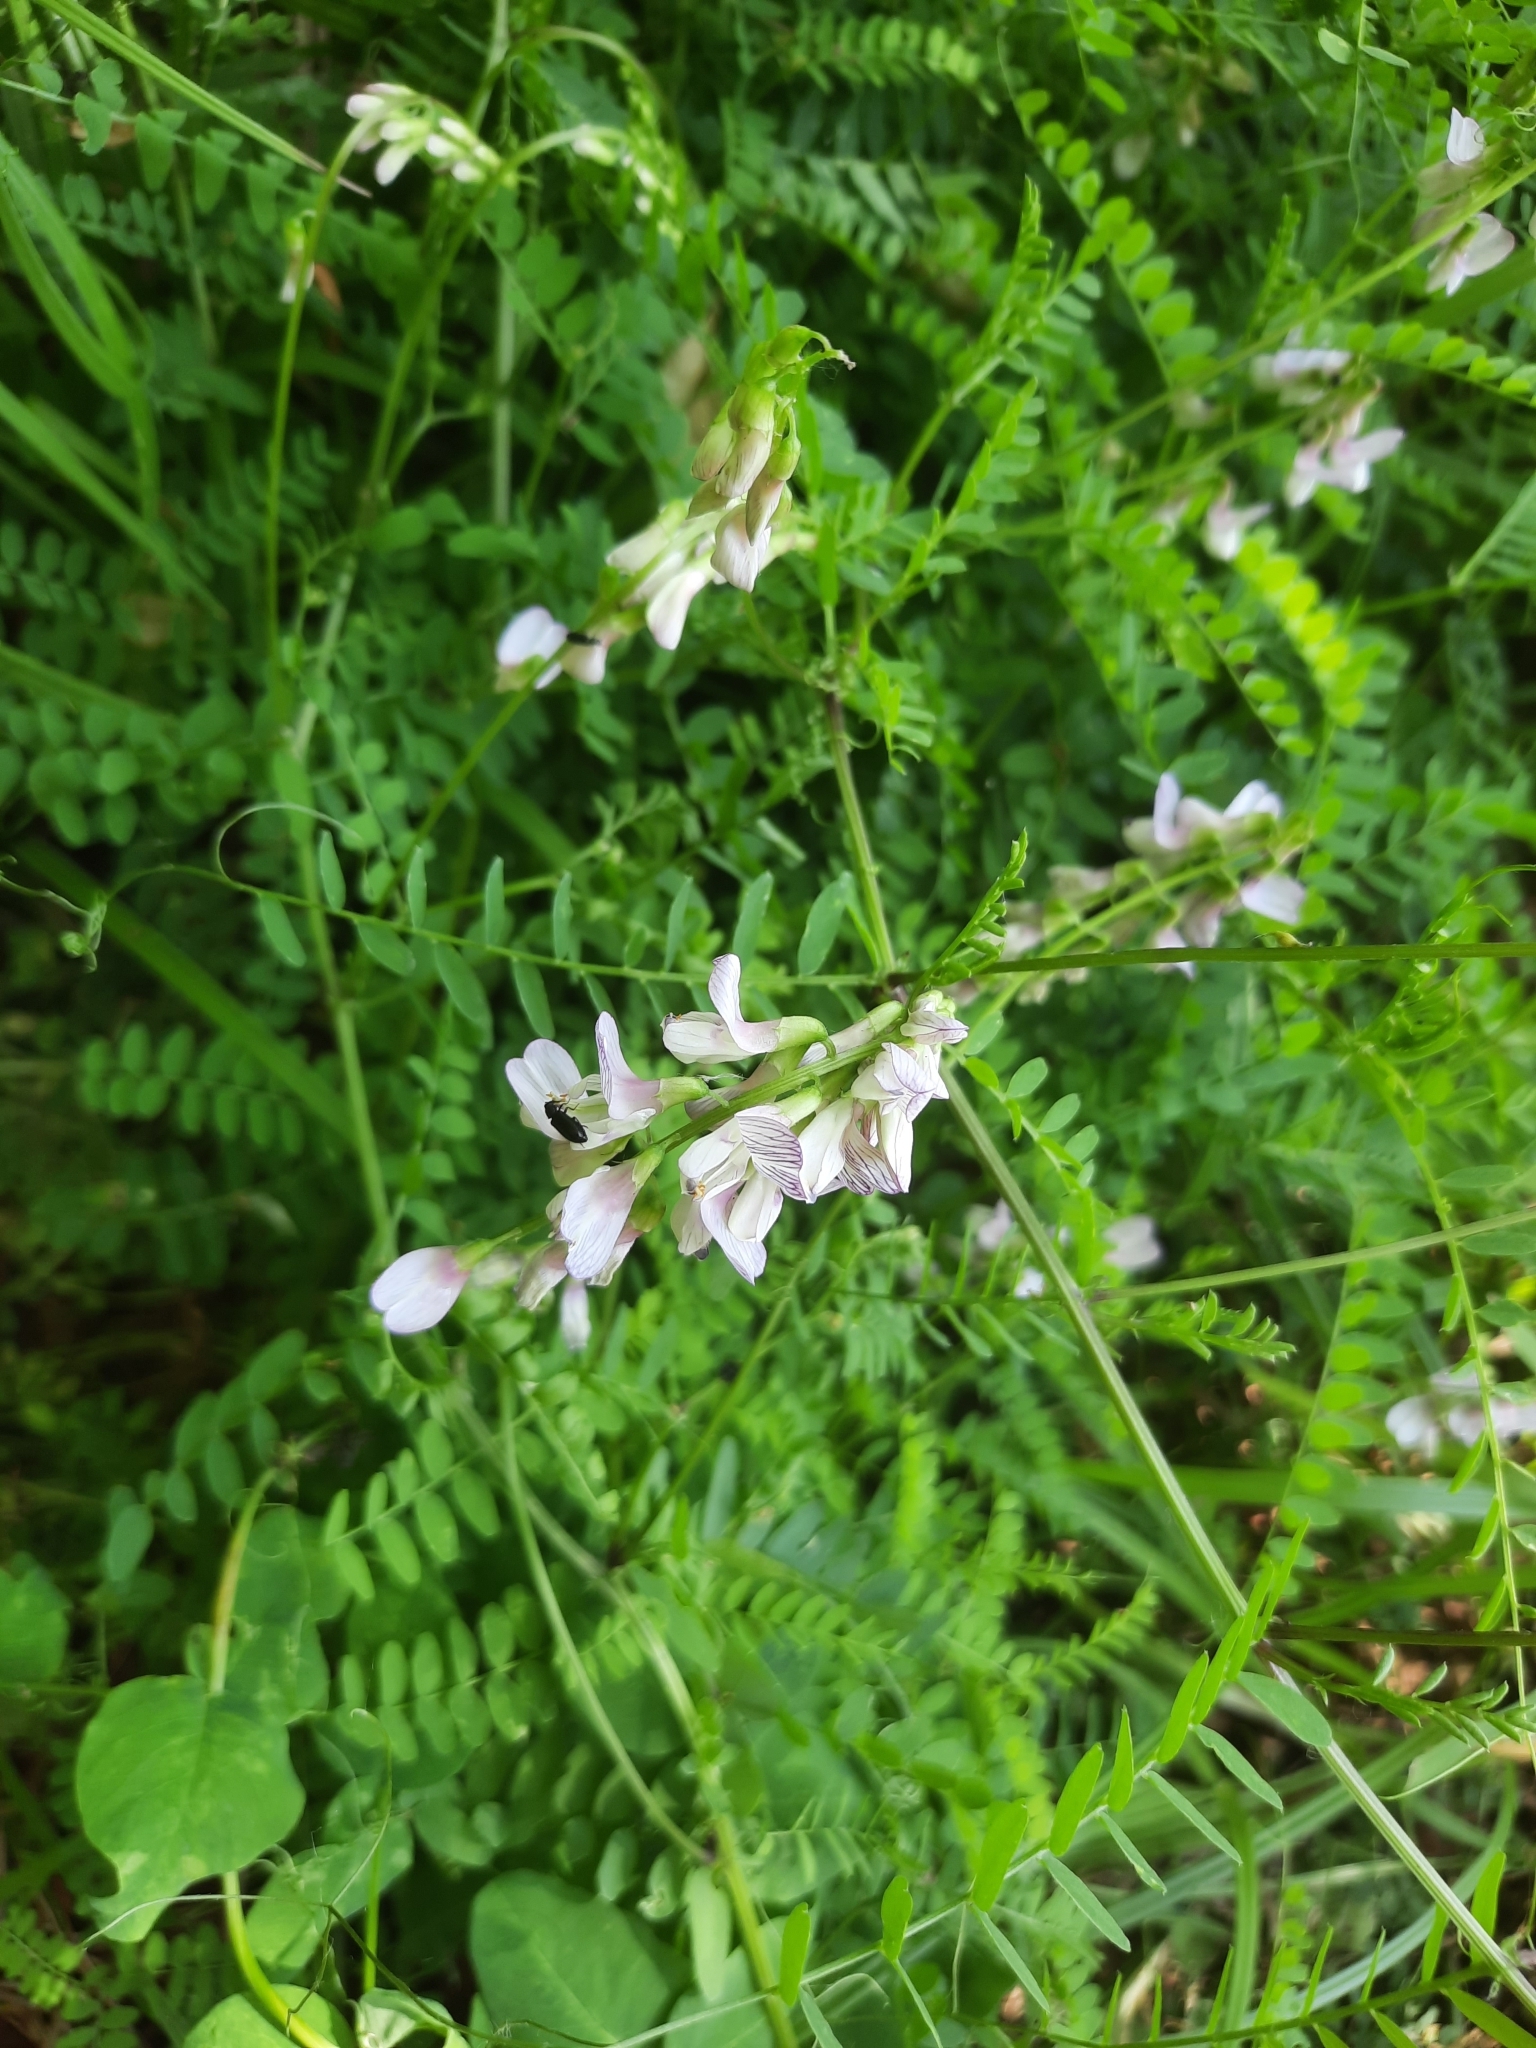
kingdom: Plantae
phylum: Tracheophyta
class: Magnoliopsida
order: Fabales
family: Fabaceae
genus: Vicia
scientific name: Vicia sylvatica
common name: Wood vetch
